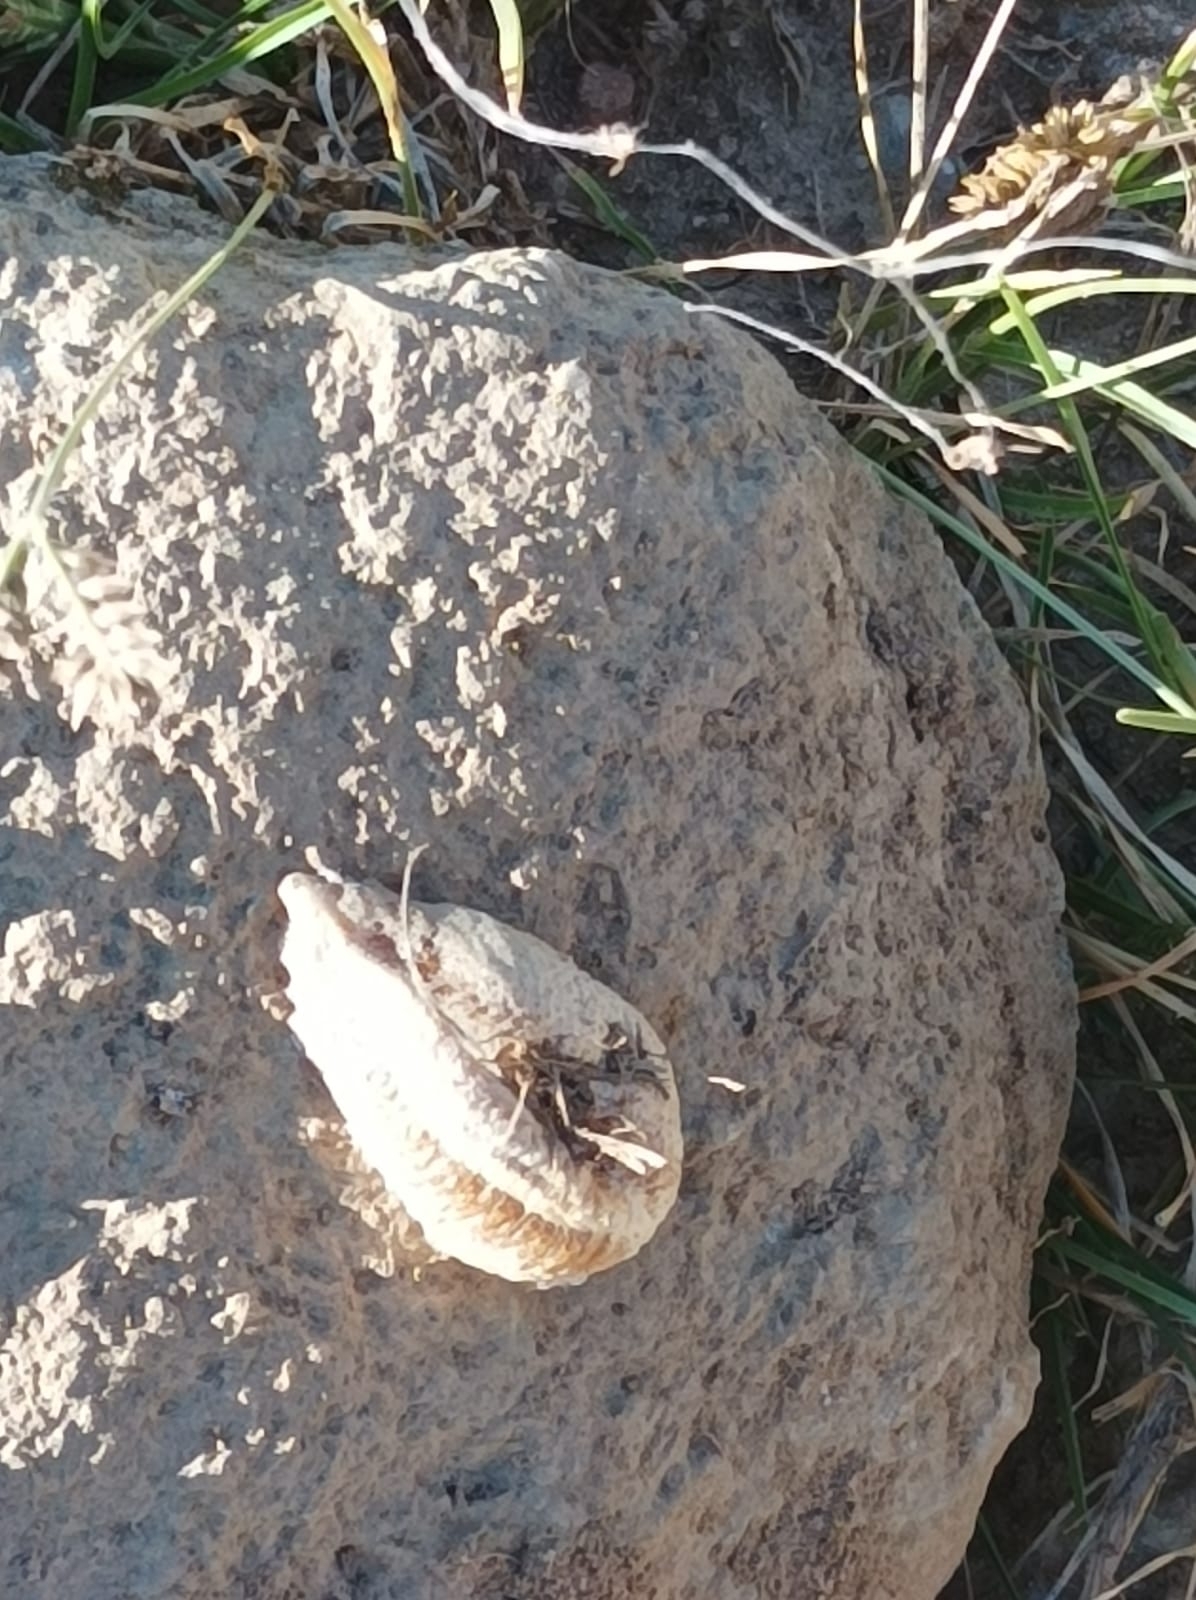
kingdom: Animalia
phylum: Arthropoda
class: Insecta
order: Mantodea
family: Mantidae
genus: Mantis
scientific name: Mantis religiosa
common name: Praying mantis
